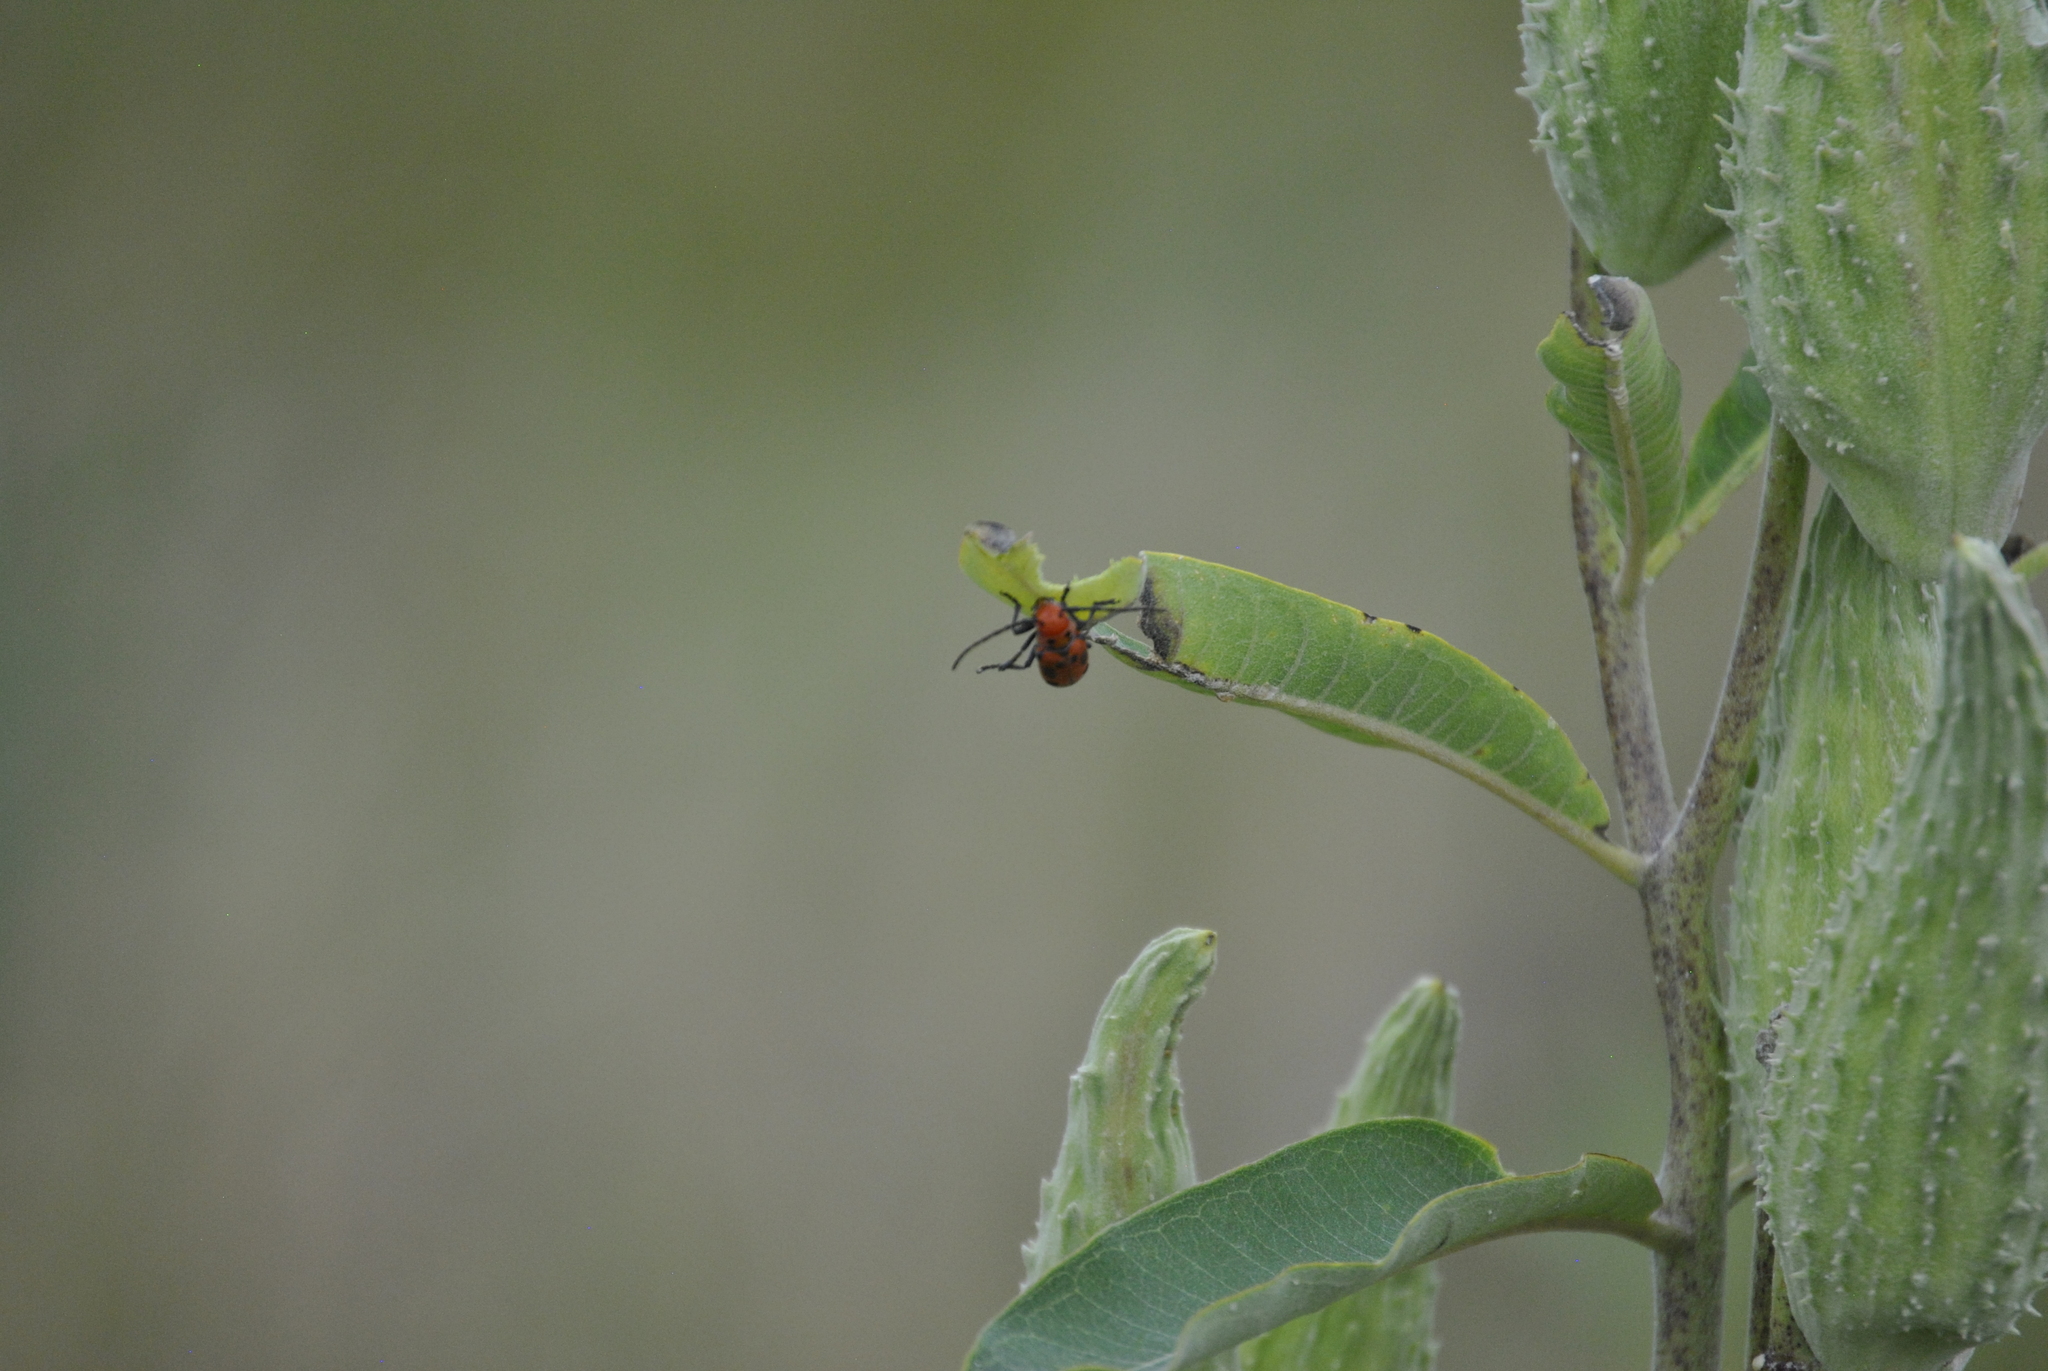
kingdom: Animalia
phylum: Arthropoda
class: Insecta
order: Coleoptera
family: Cerambycidae
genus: Tetraopes
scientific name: Tetraopes tetrophthalmus
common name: Red milkweed beetle
